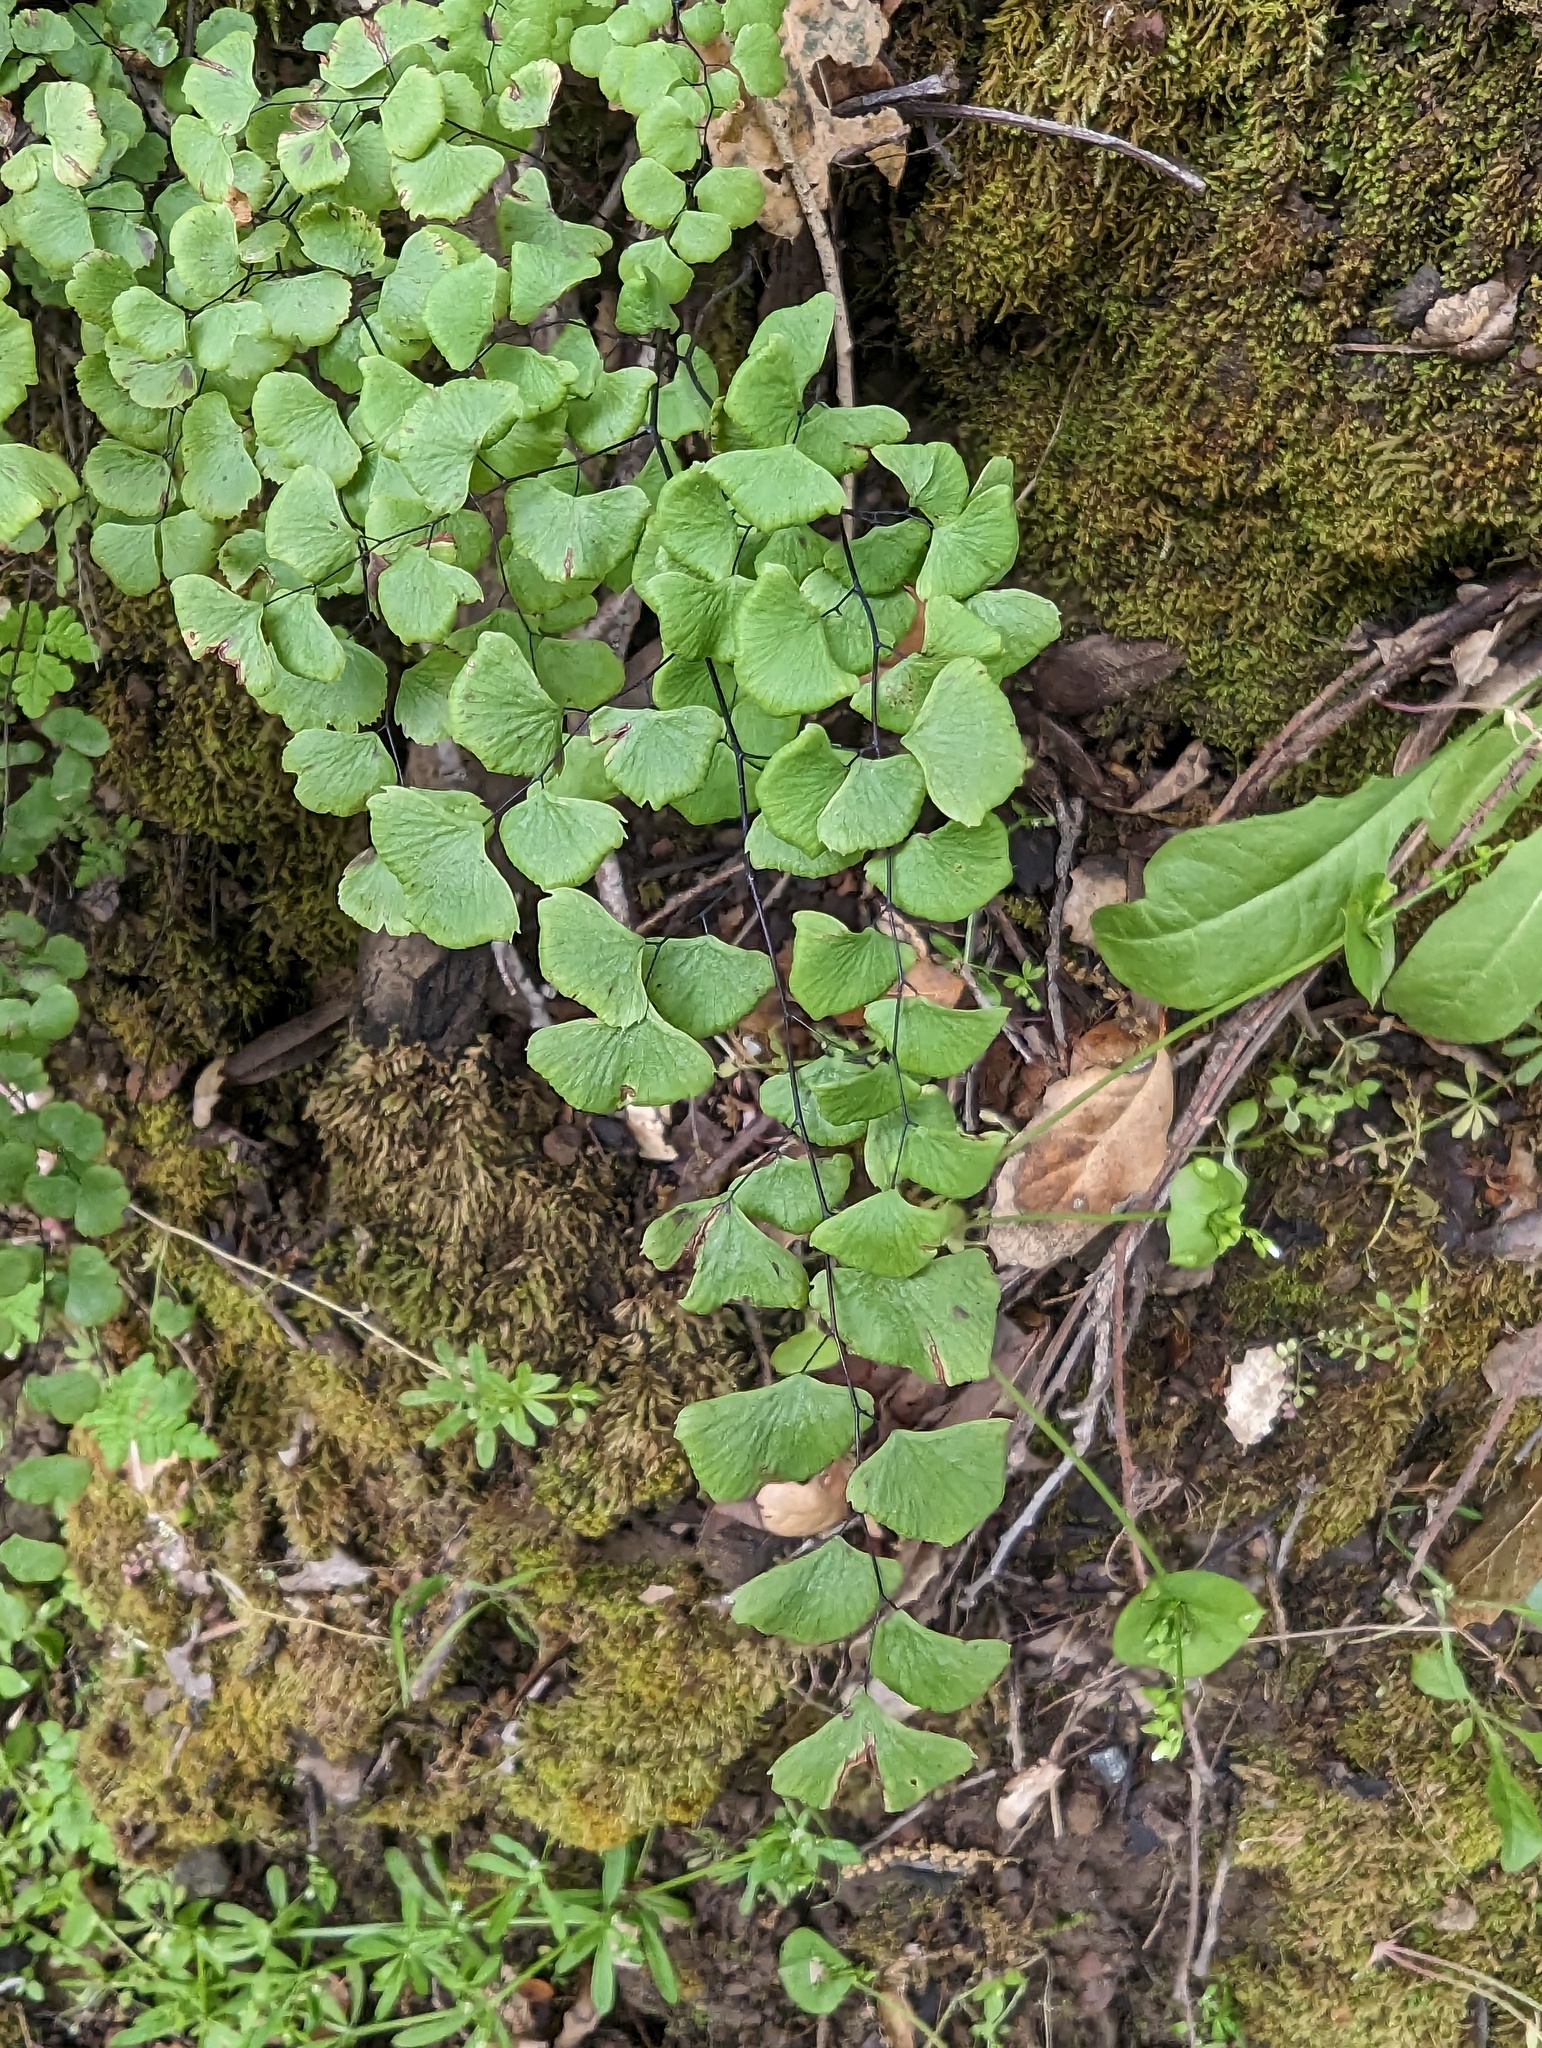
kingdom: Plantae
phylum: Tracheophyta
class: Polypodiopsida
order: Polypodiales
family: Pteridaceae
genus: Adiantum
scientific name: Adiantum jordanii
